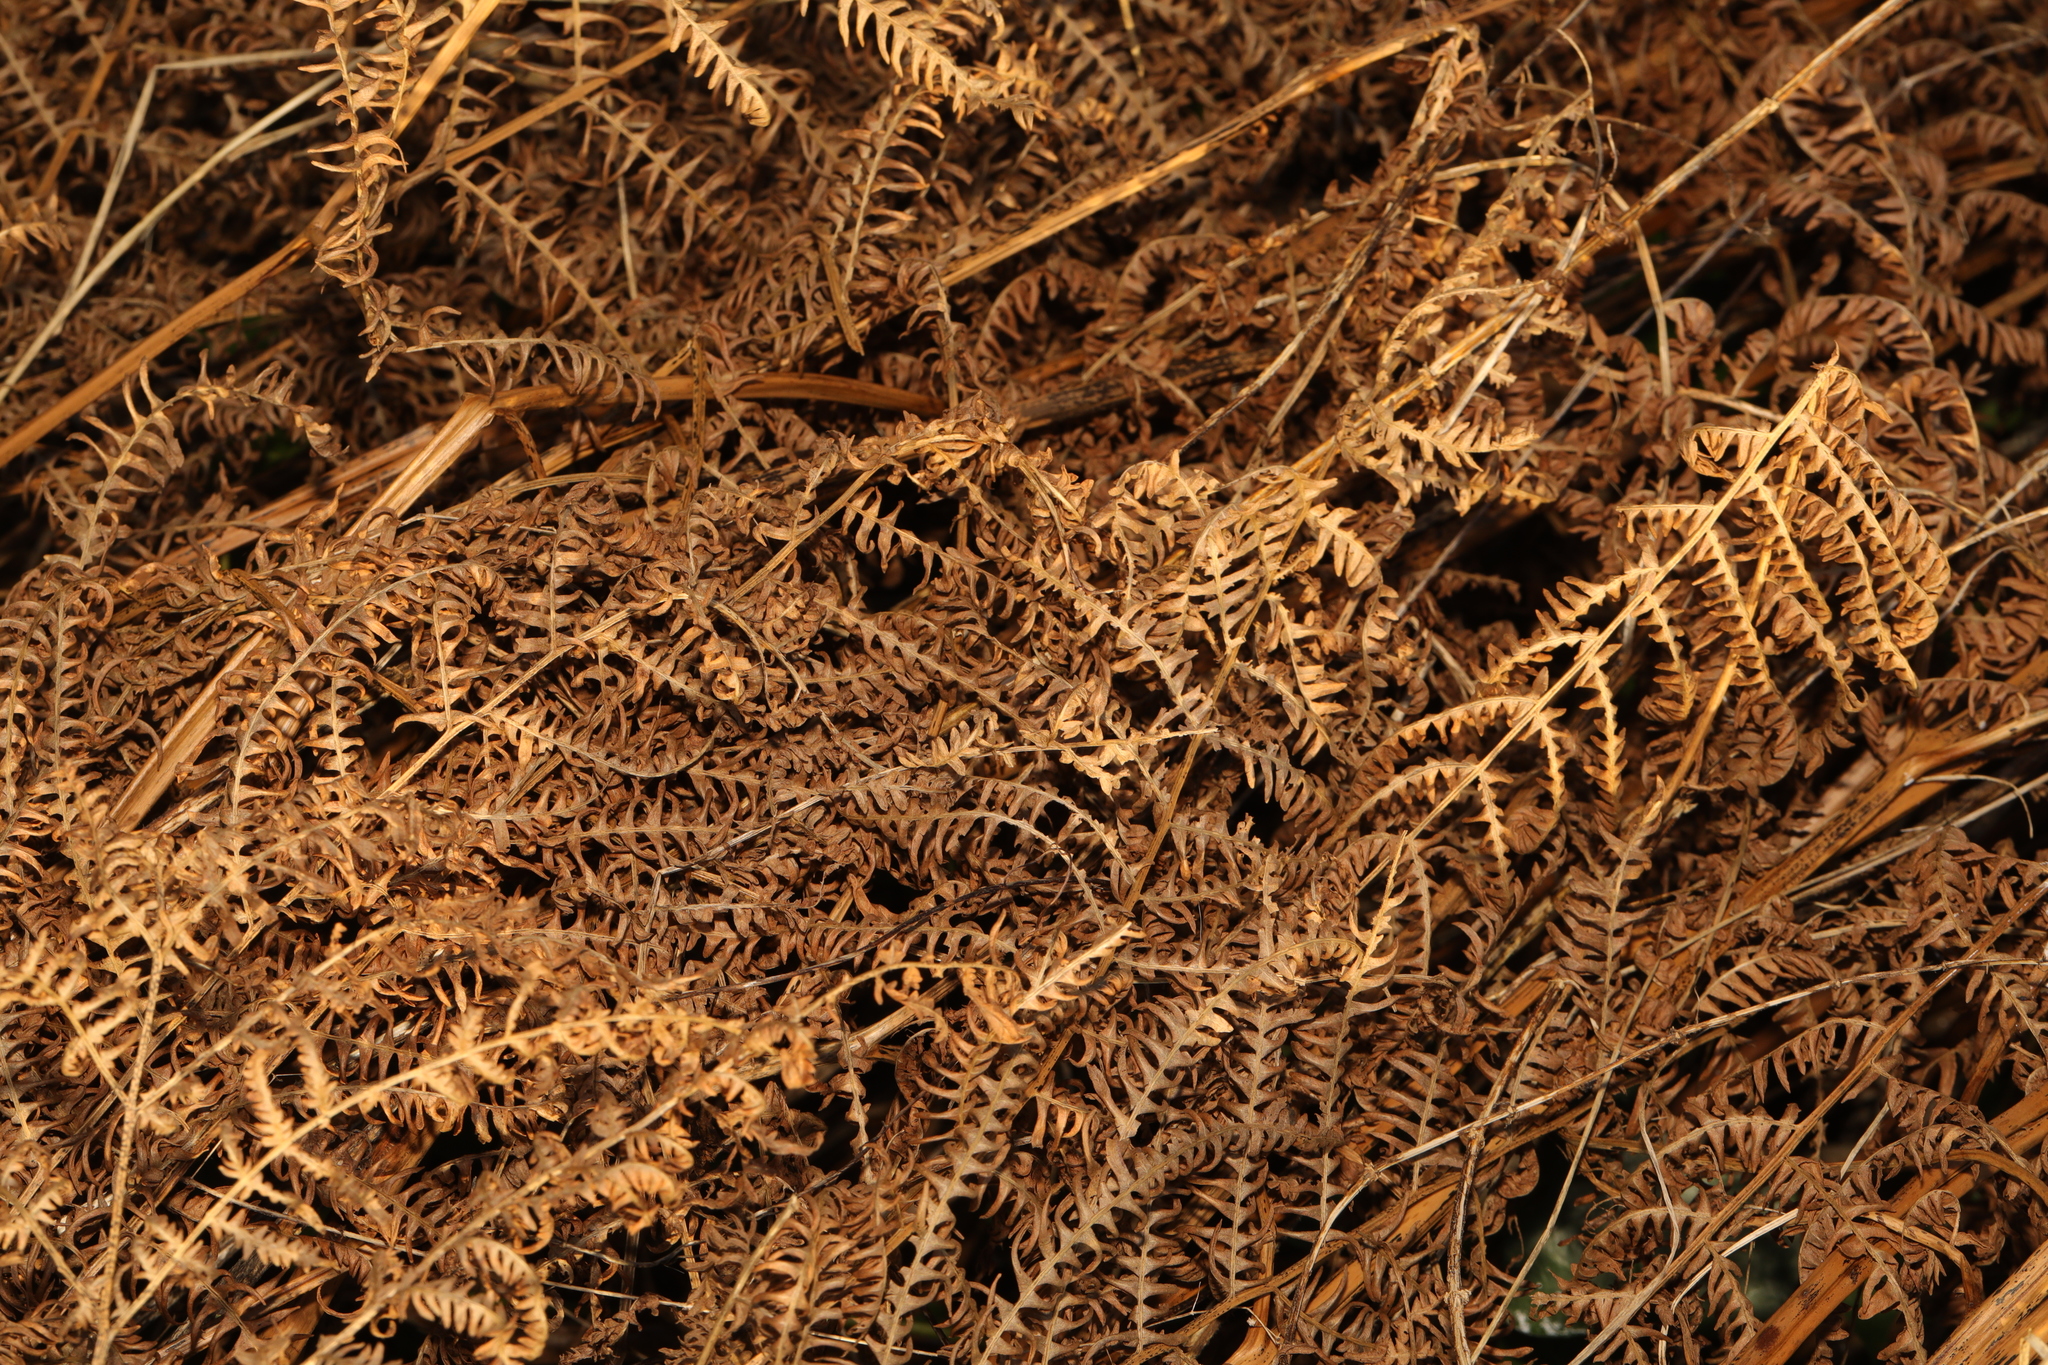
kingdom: Plantae
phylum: Tracheophyta
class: Polypodiopsida
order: Polypodiales
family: Dennstaedtiaceae
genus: Pteridium
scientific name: Pteridium aquilinum
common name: Bracken
